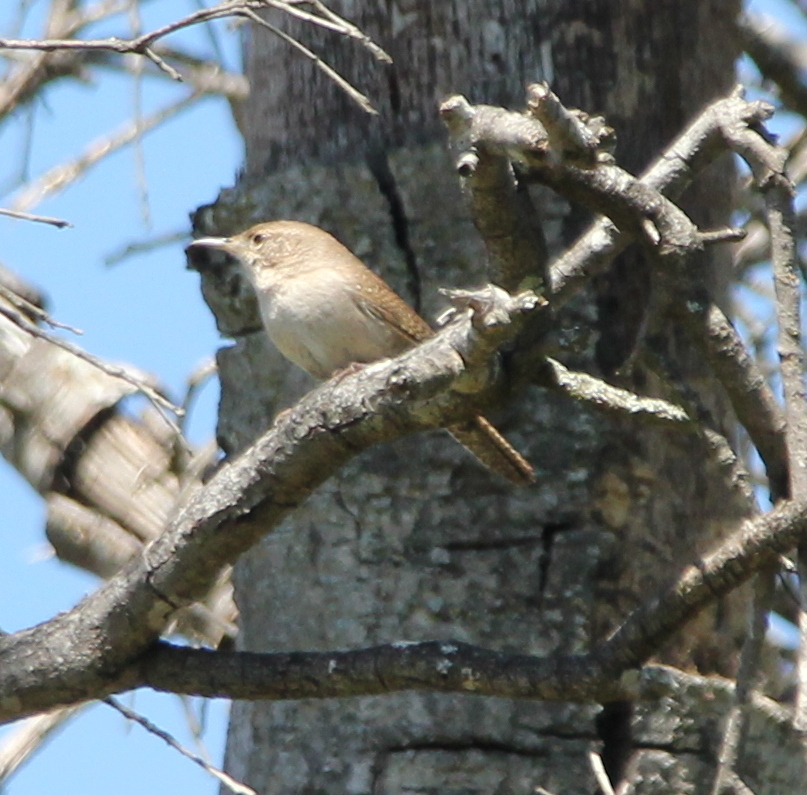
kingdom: Animalia
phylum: Chordata
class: Aves
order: Passeriformes
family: Troglodytidae
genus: Troglodytes
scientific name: Troglodytes aedon
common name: House wren
